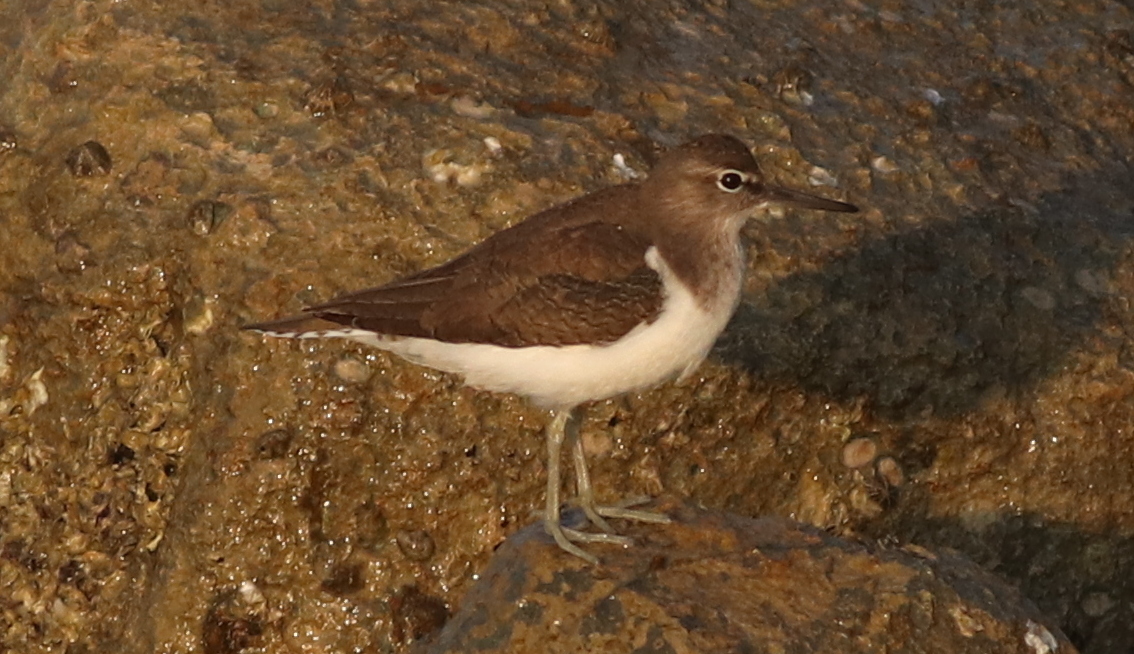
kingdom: Animalia
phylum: Chordata
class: Aves
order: Charadriiformes
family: Scolopacidae
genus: Actitis
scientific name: Actitis hypoleucos
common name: Common sandpiper
